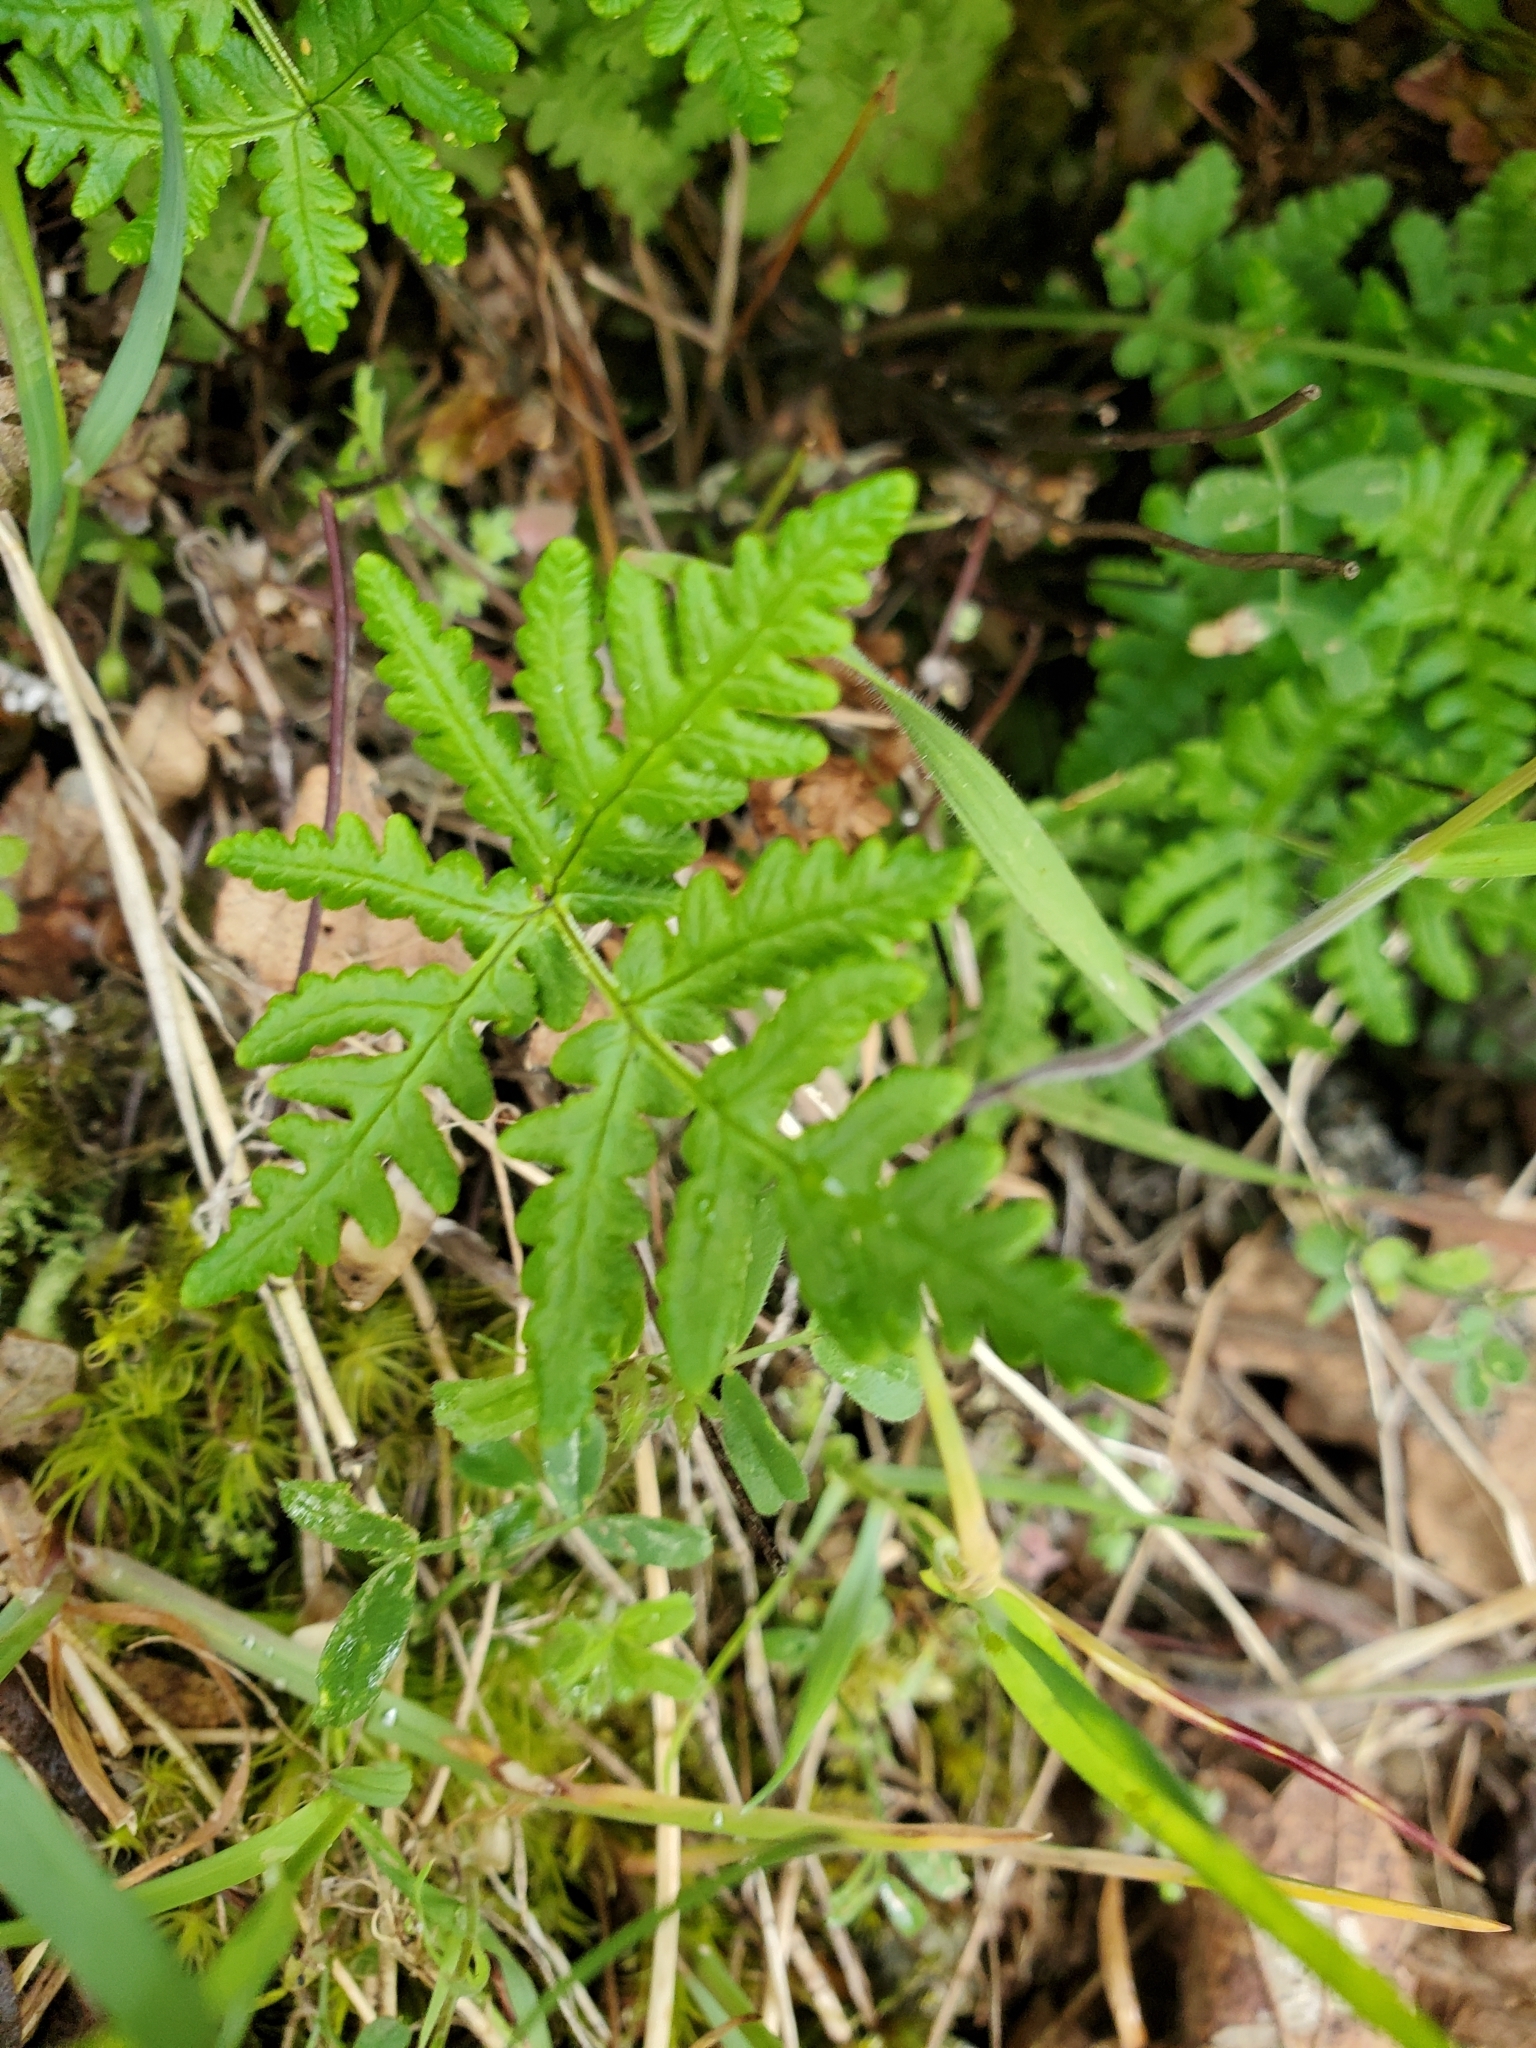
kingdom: Plantae
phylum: Tracheophyta
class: Polypodiopsida
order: Polypodiales
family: Pteridaceae
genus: Pentagramma
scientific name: Pentagramma triangularis
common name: Gold fern
